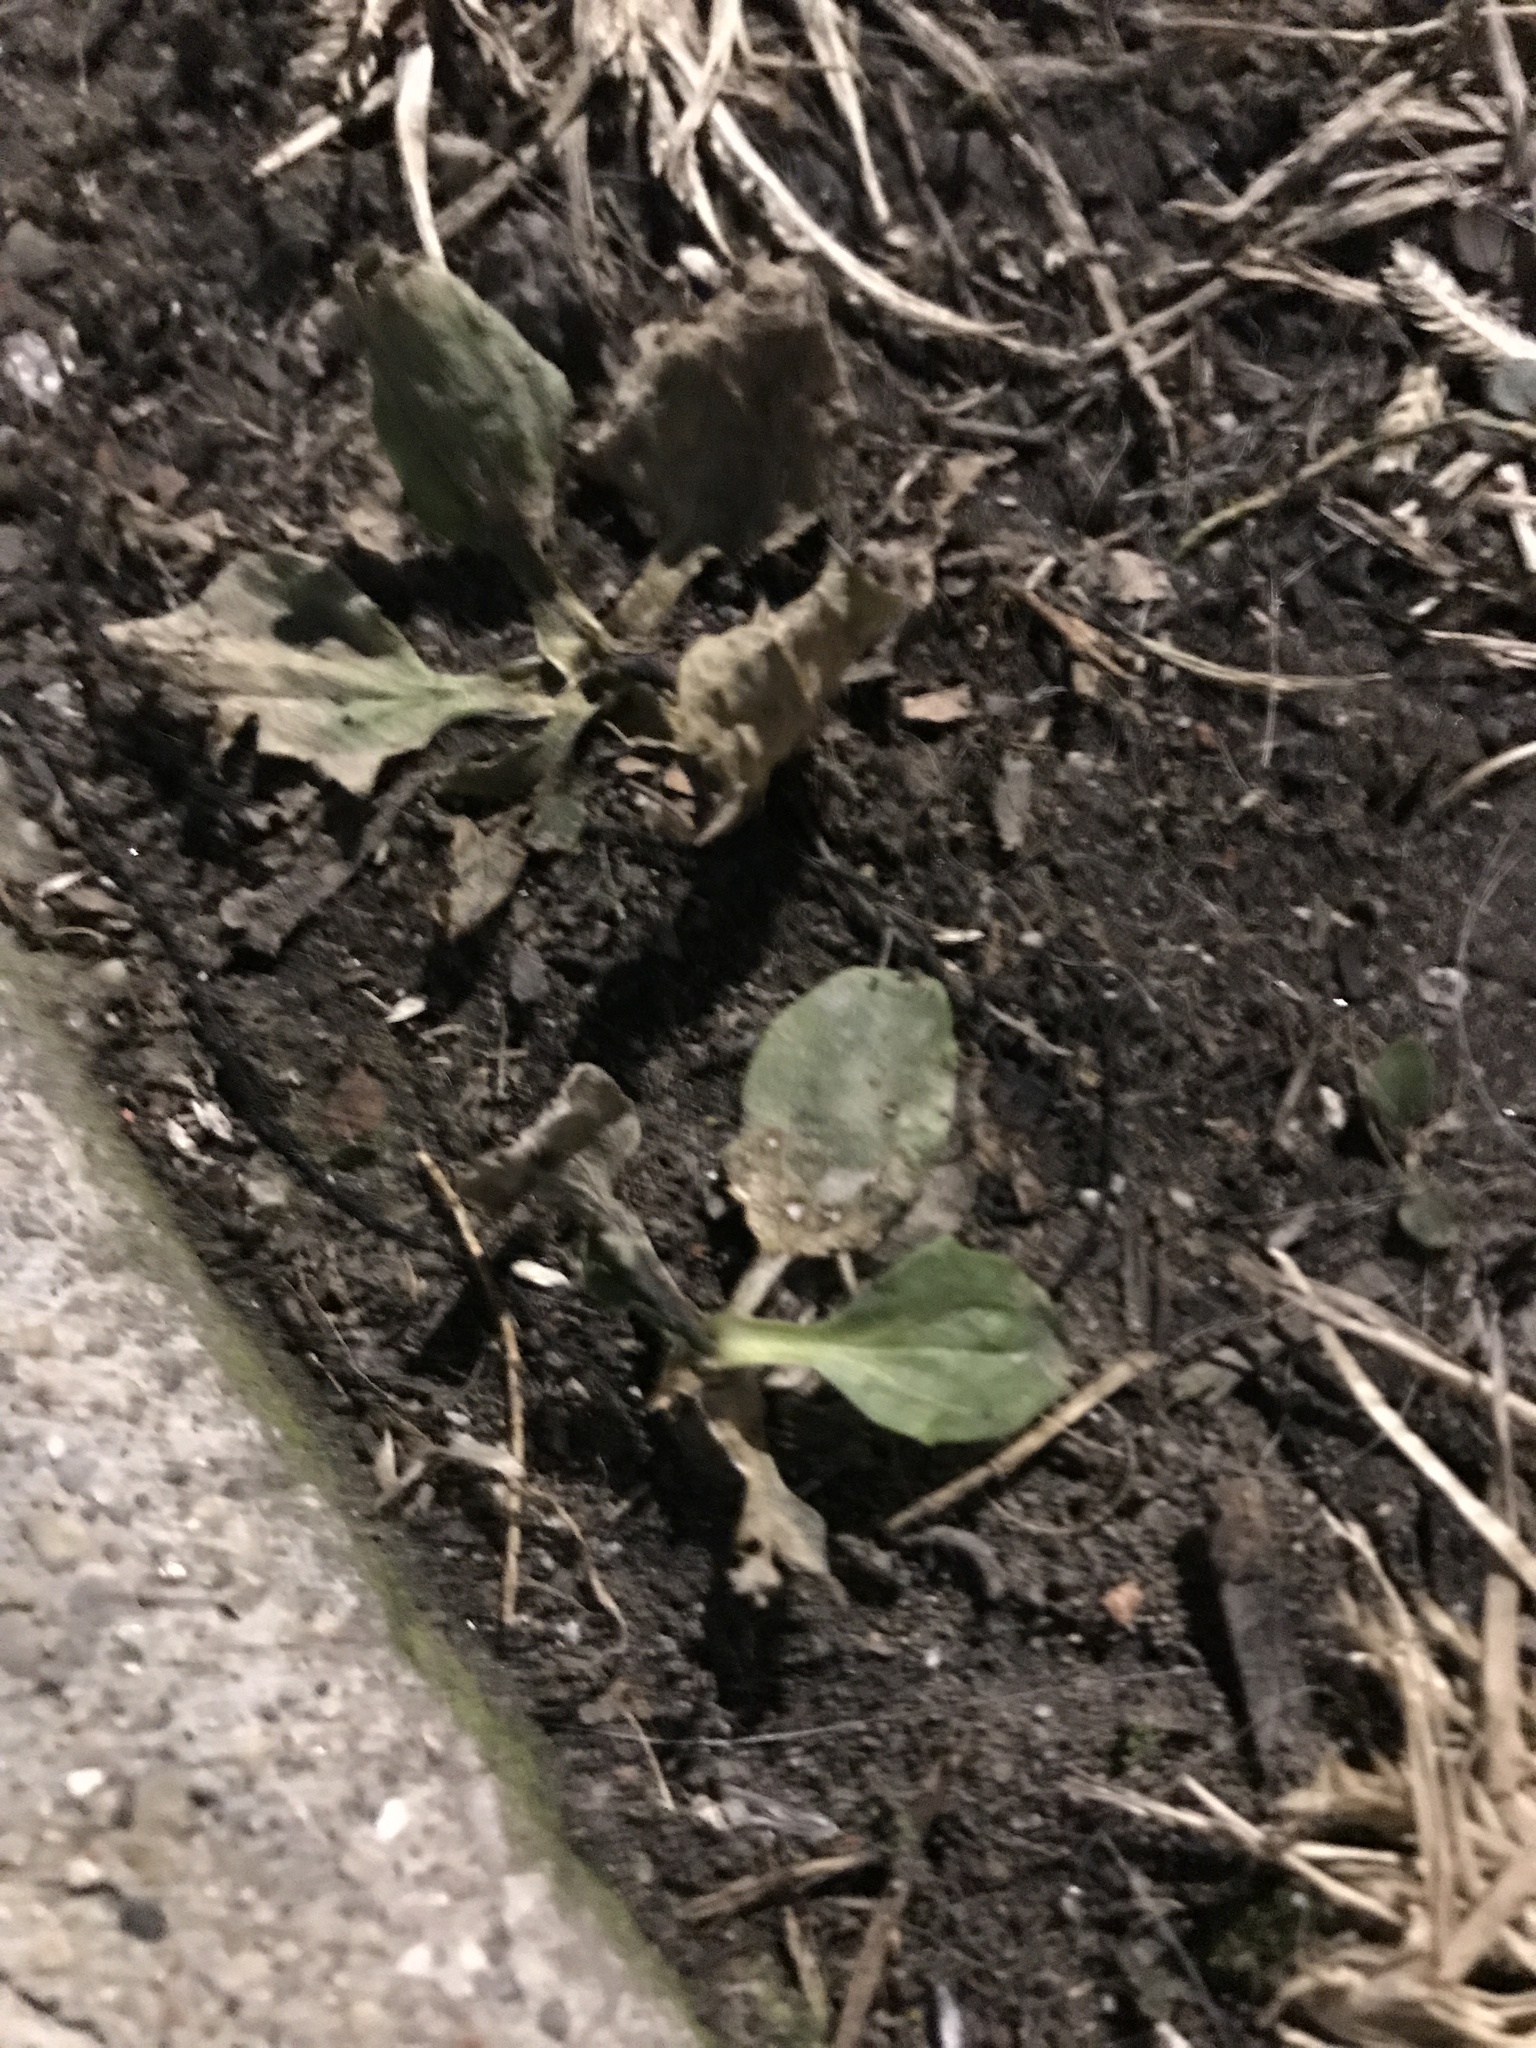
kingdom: Plantae
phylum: Tracheophyta
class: Magnoliopsida
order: Lamiales
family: Plantaginaceae
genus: Plantago
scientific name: Plantago major
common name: Common plantain
